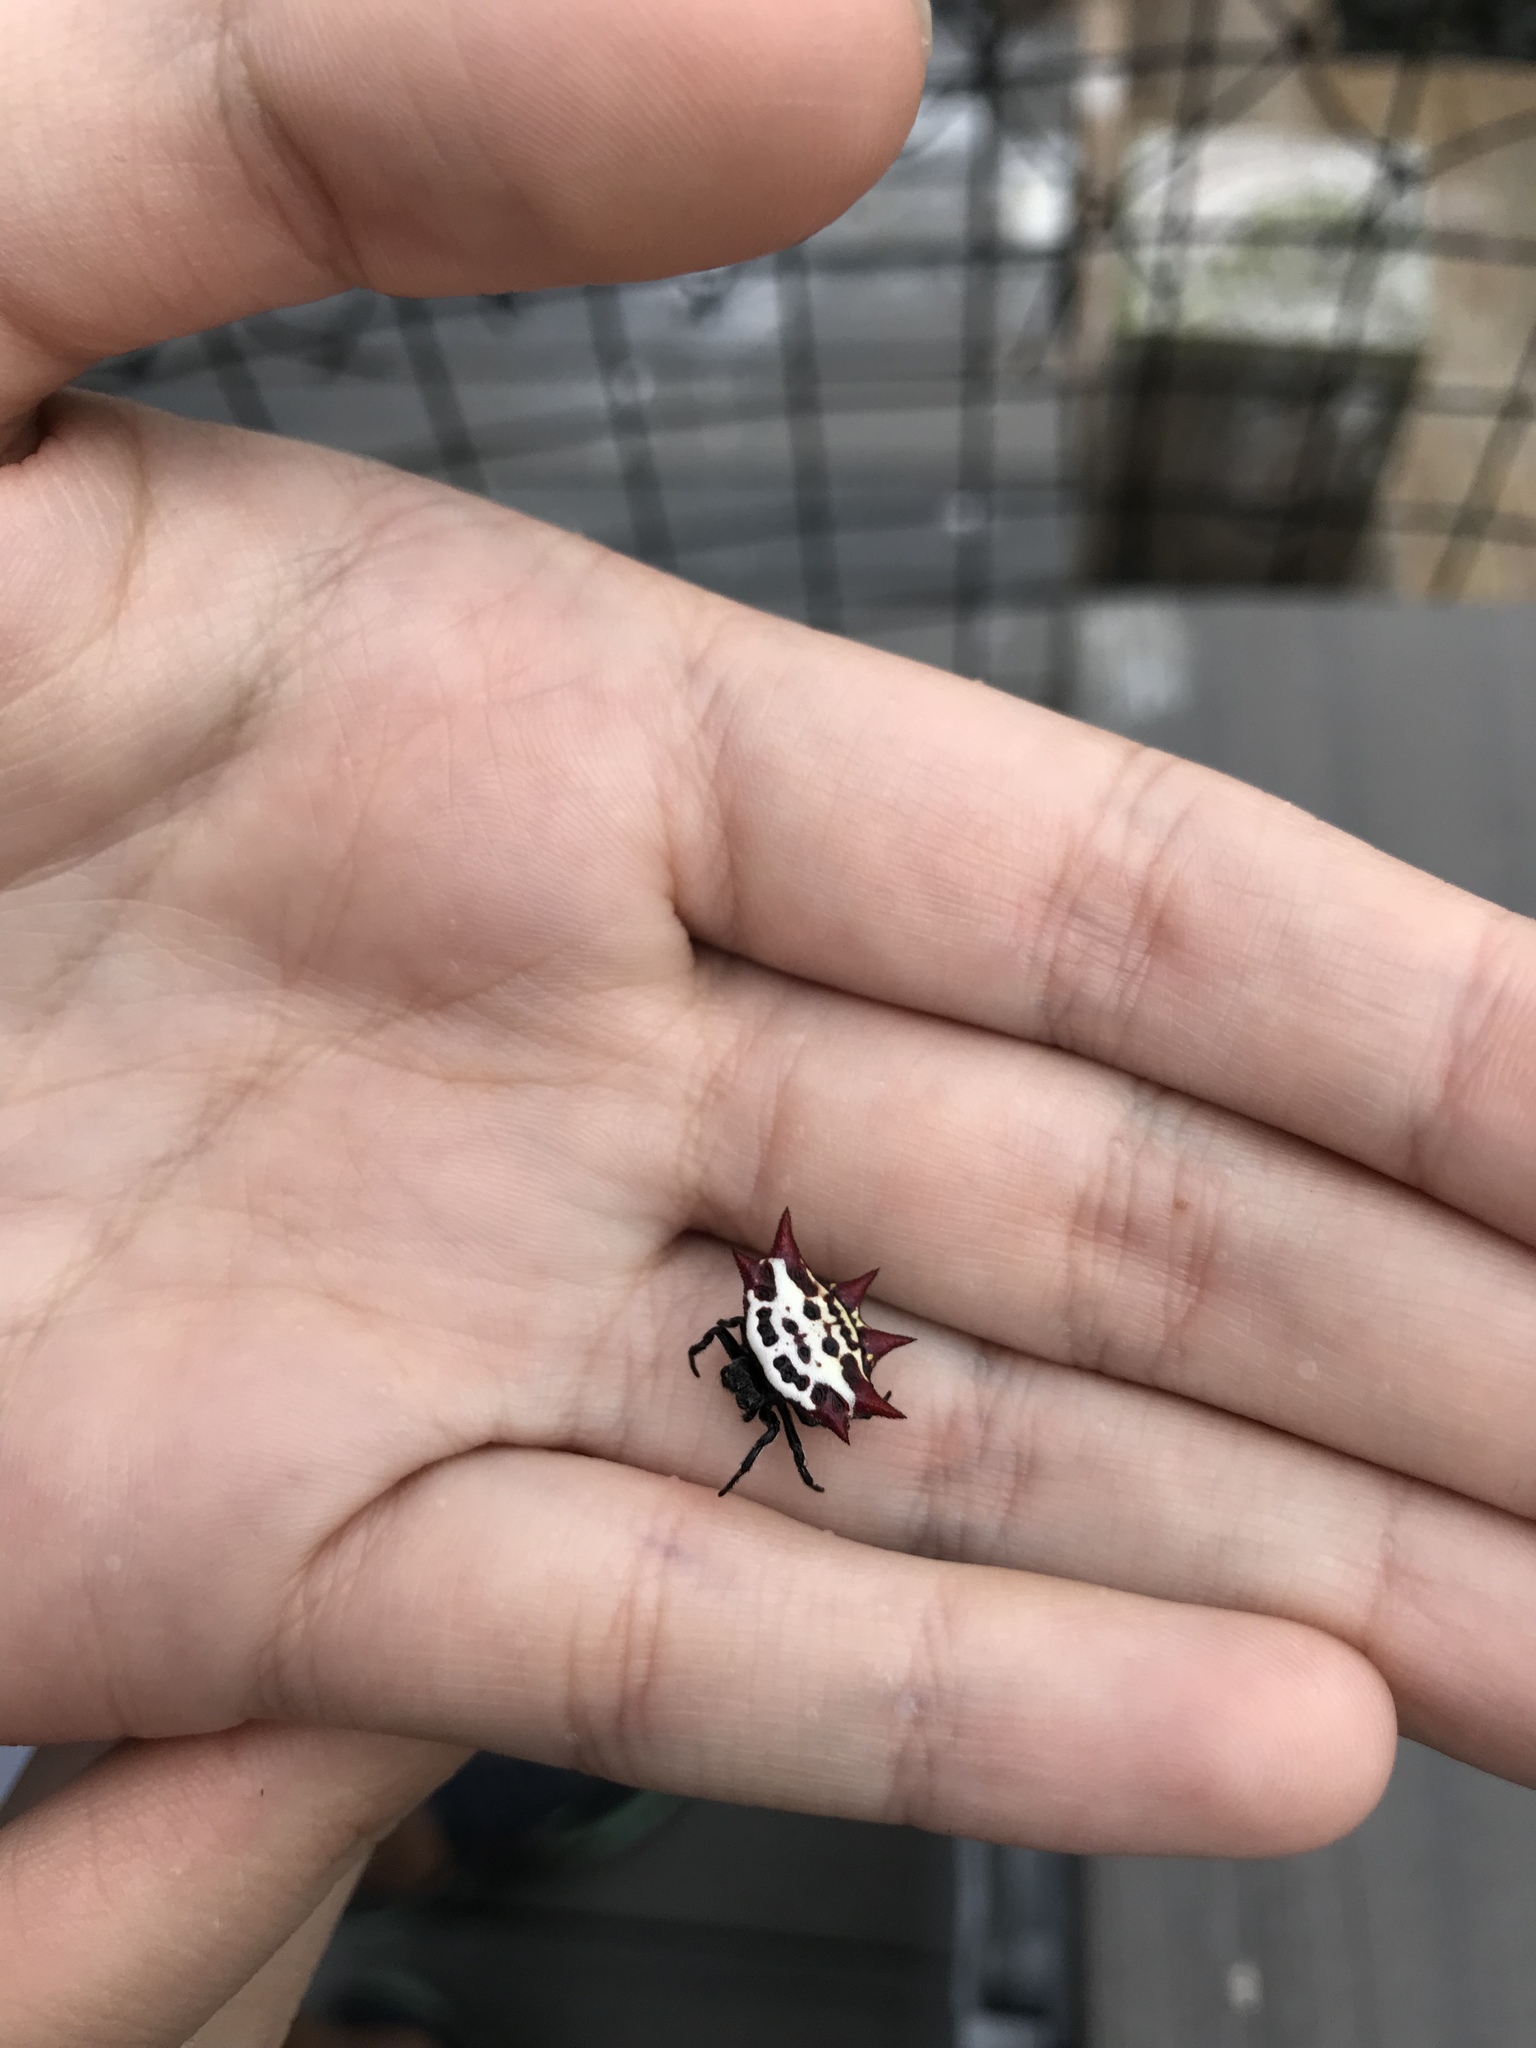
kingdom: Animalia
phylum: Arthropoda
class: Arachnida
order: Araneae
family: Araneidae
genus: Gasteracantha
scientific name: Gasteracantha cancriformis
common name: Orb weavers
